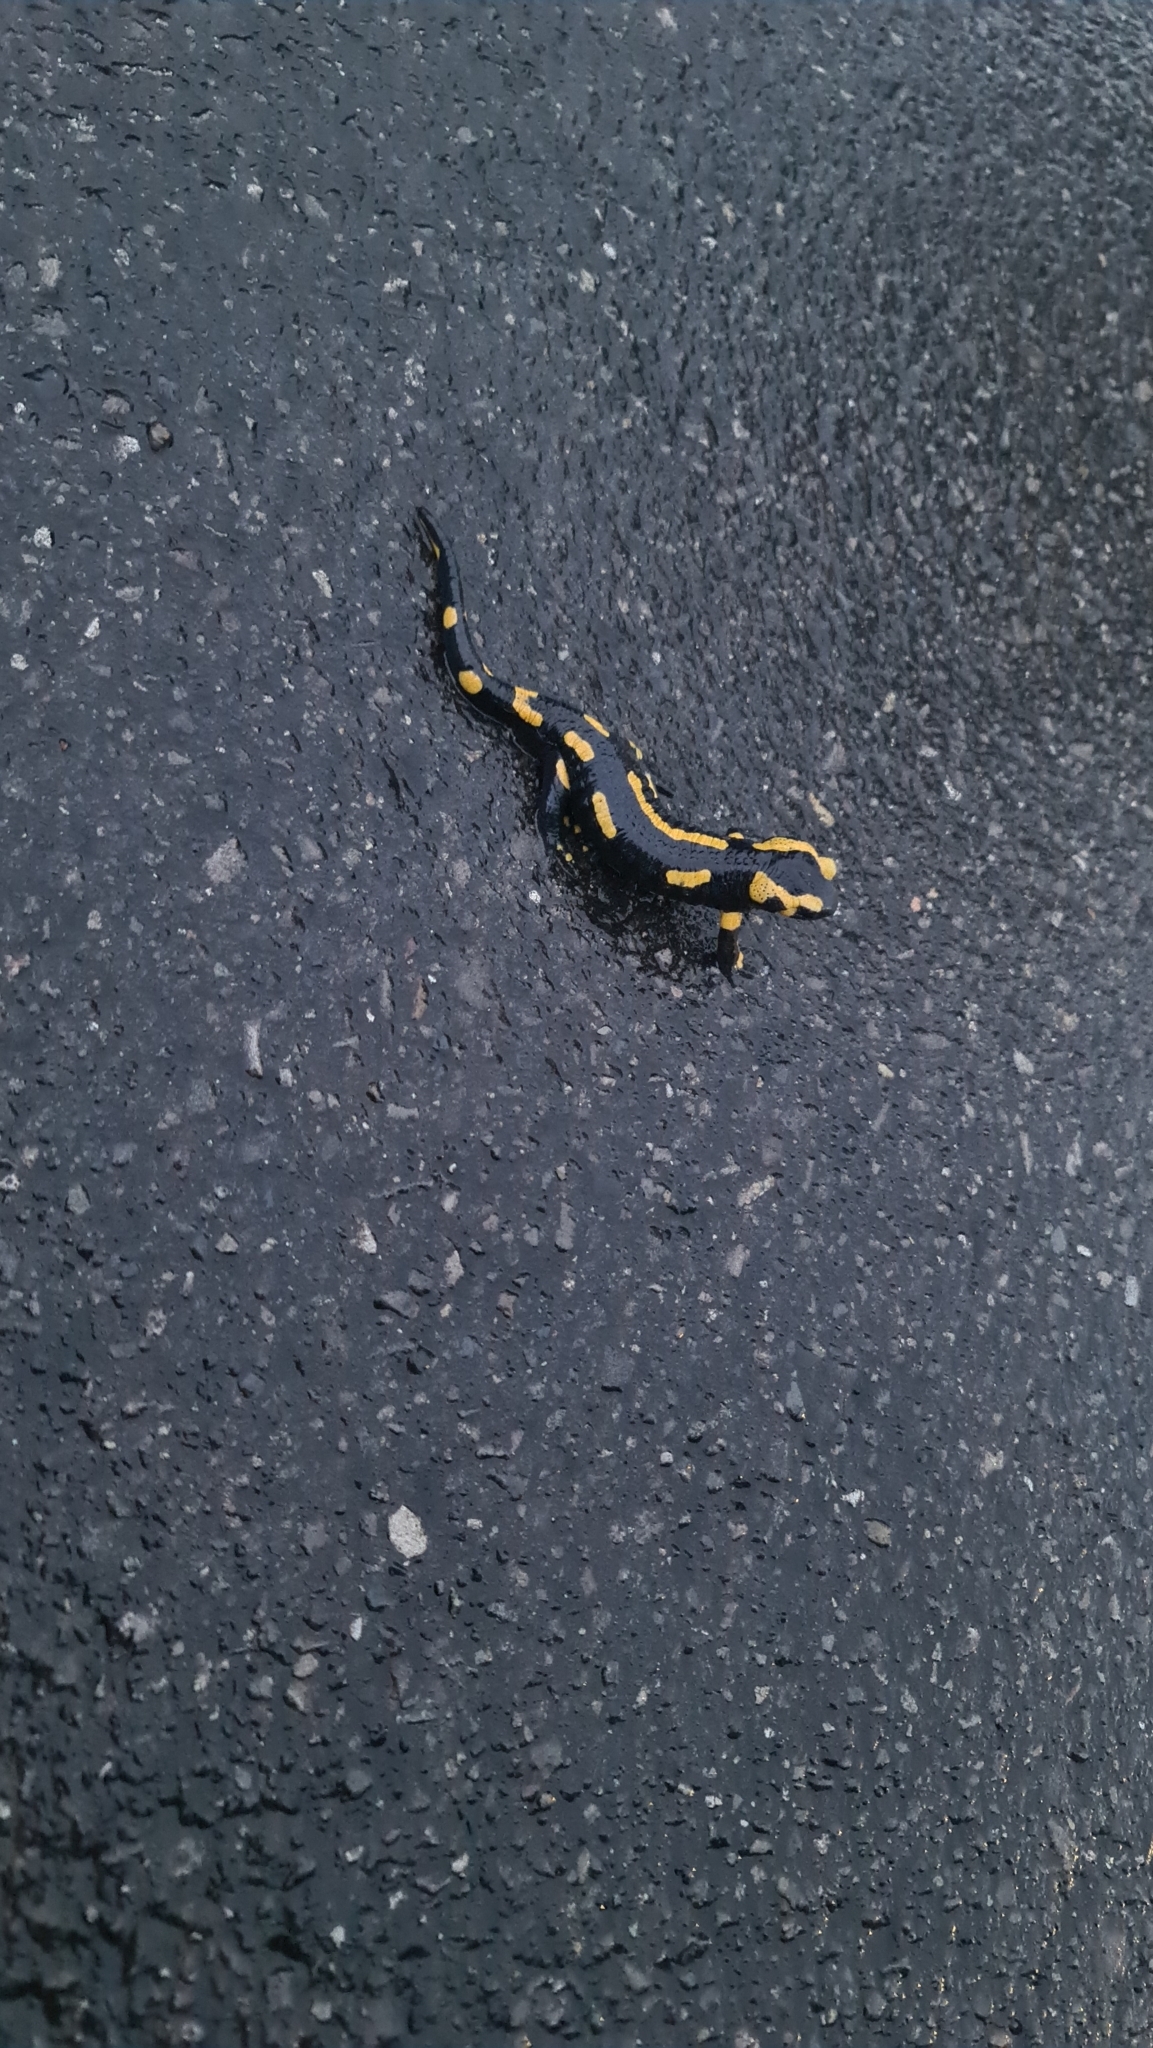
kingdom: Animalia
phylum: Chordata
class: Amphibia
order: Caudata
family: Salamandridae
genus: Salamandra
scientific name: Salamandra salamandra
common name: Fire salamander
